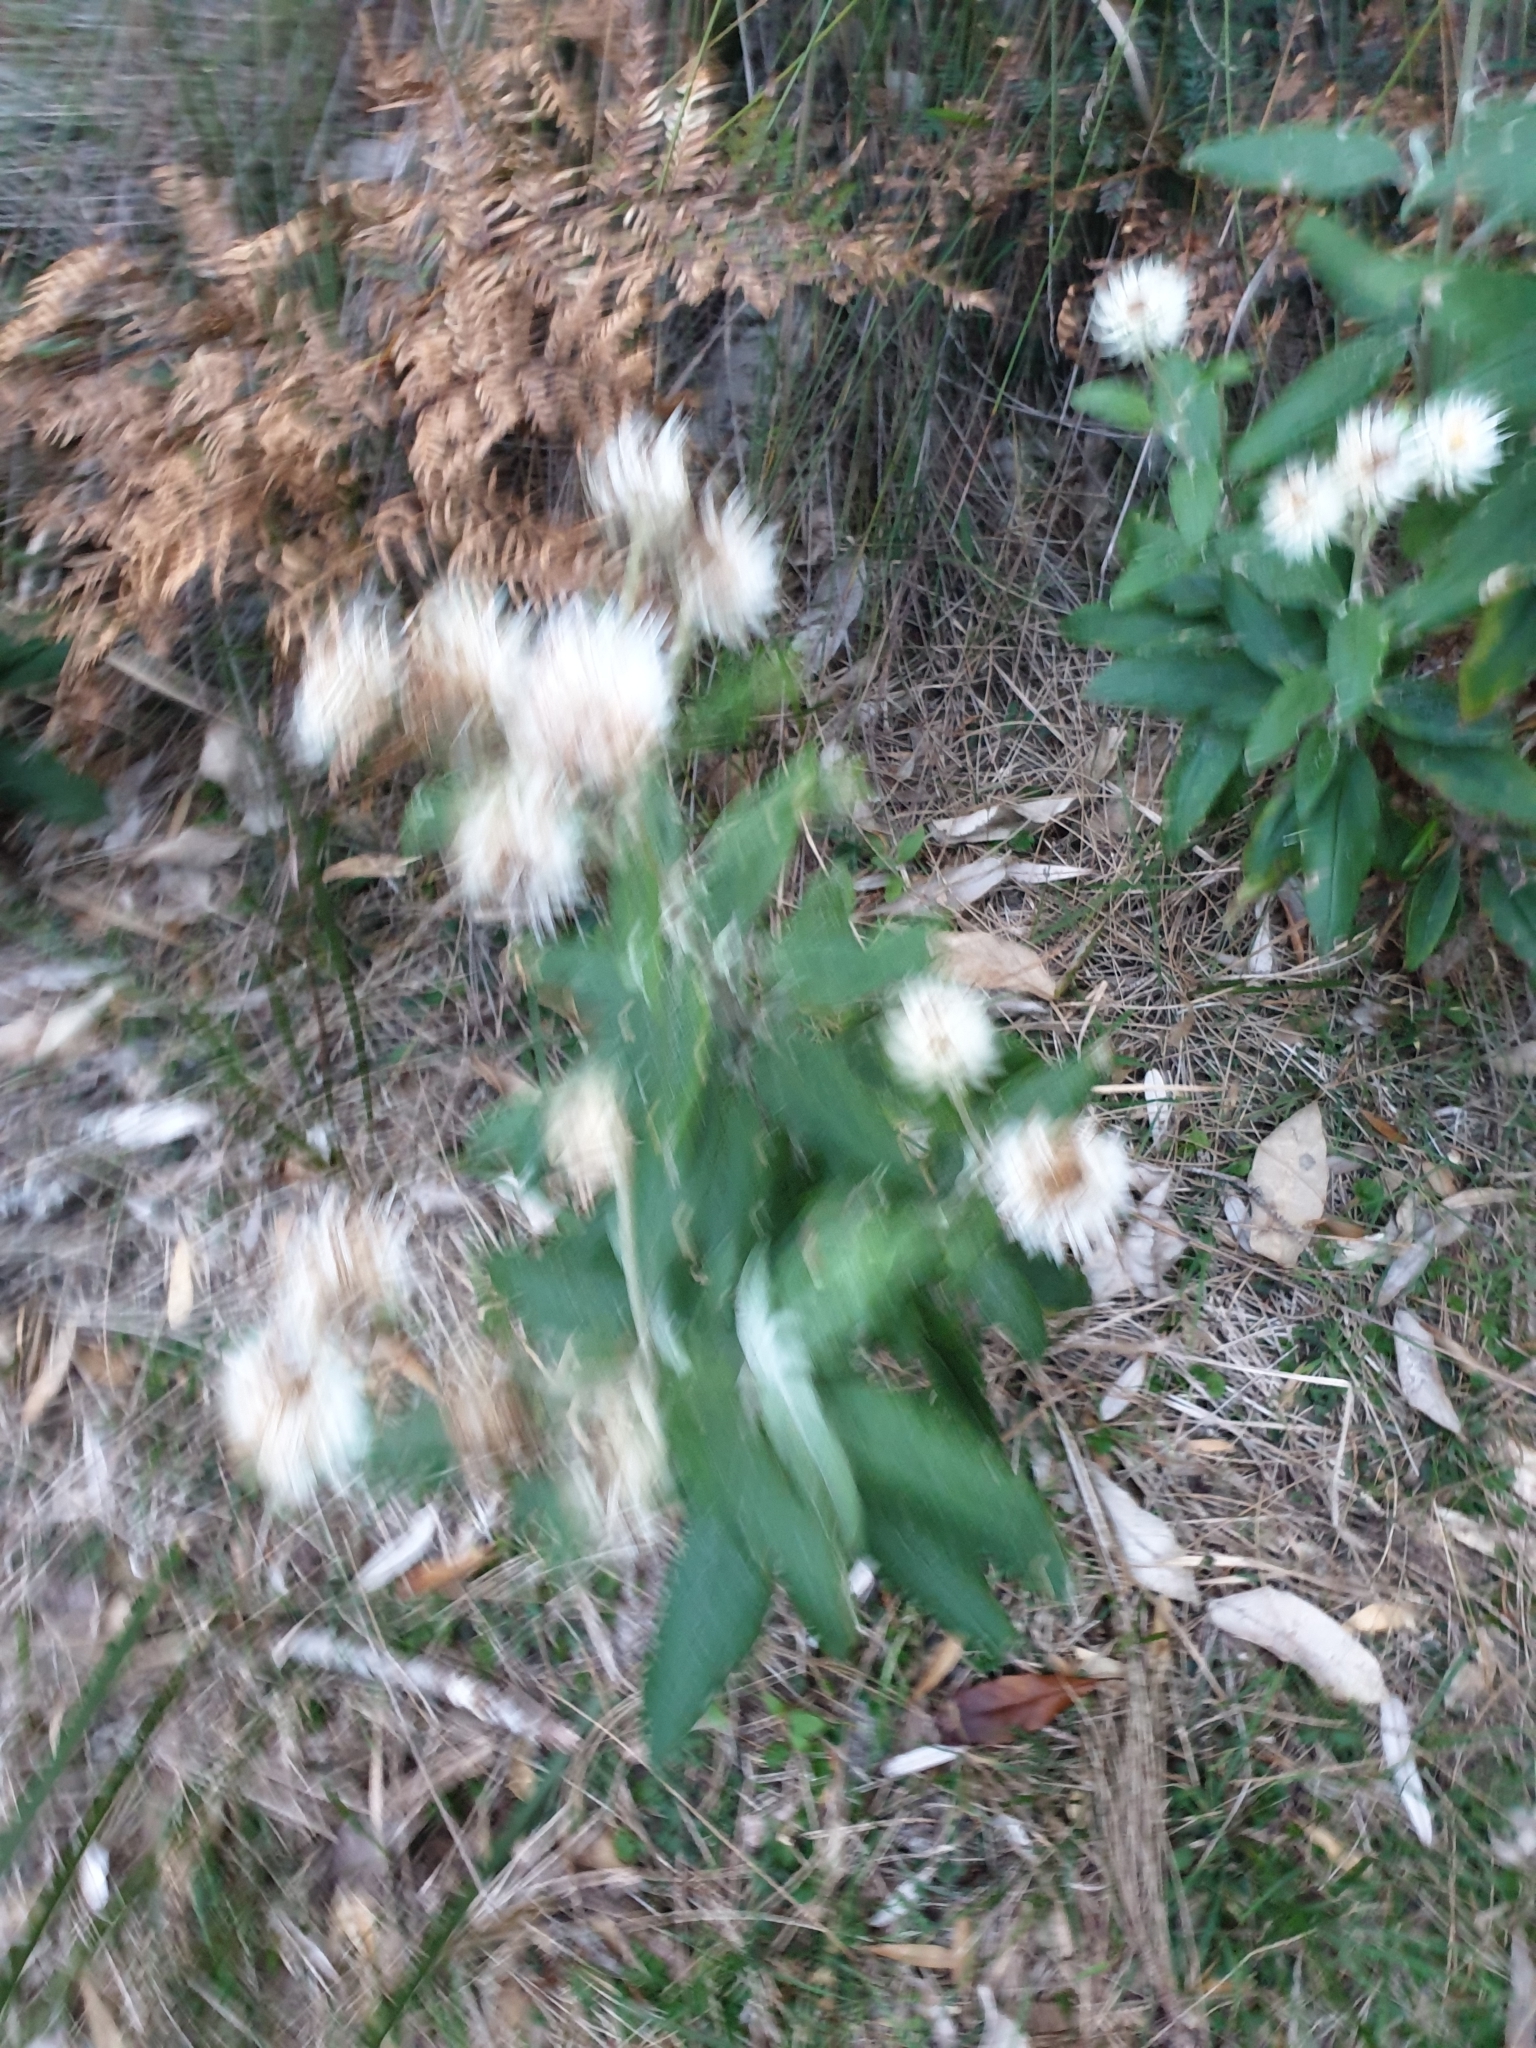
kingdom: Plantae
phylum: Tracheophyta
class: Magnoliopsida
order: Asterales
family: Asteraceae
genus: Leucozoma
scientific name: Leucozoma elatum
